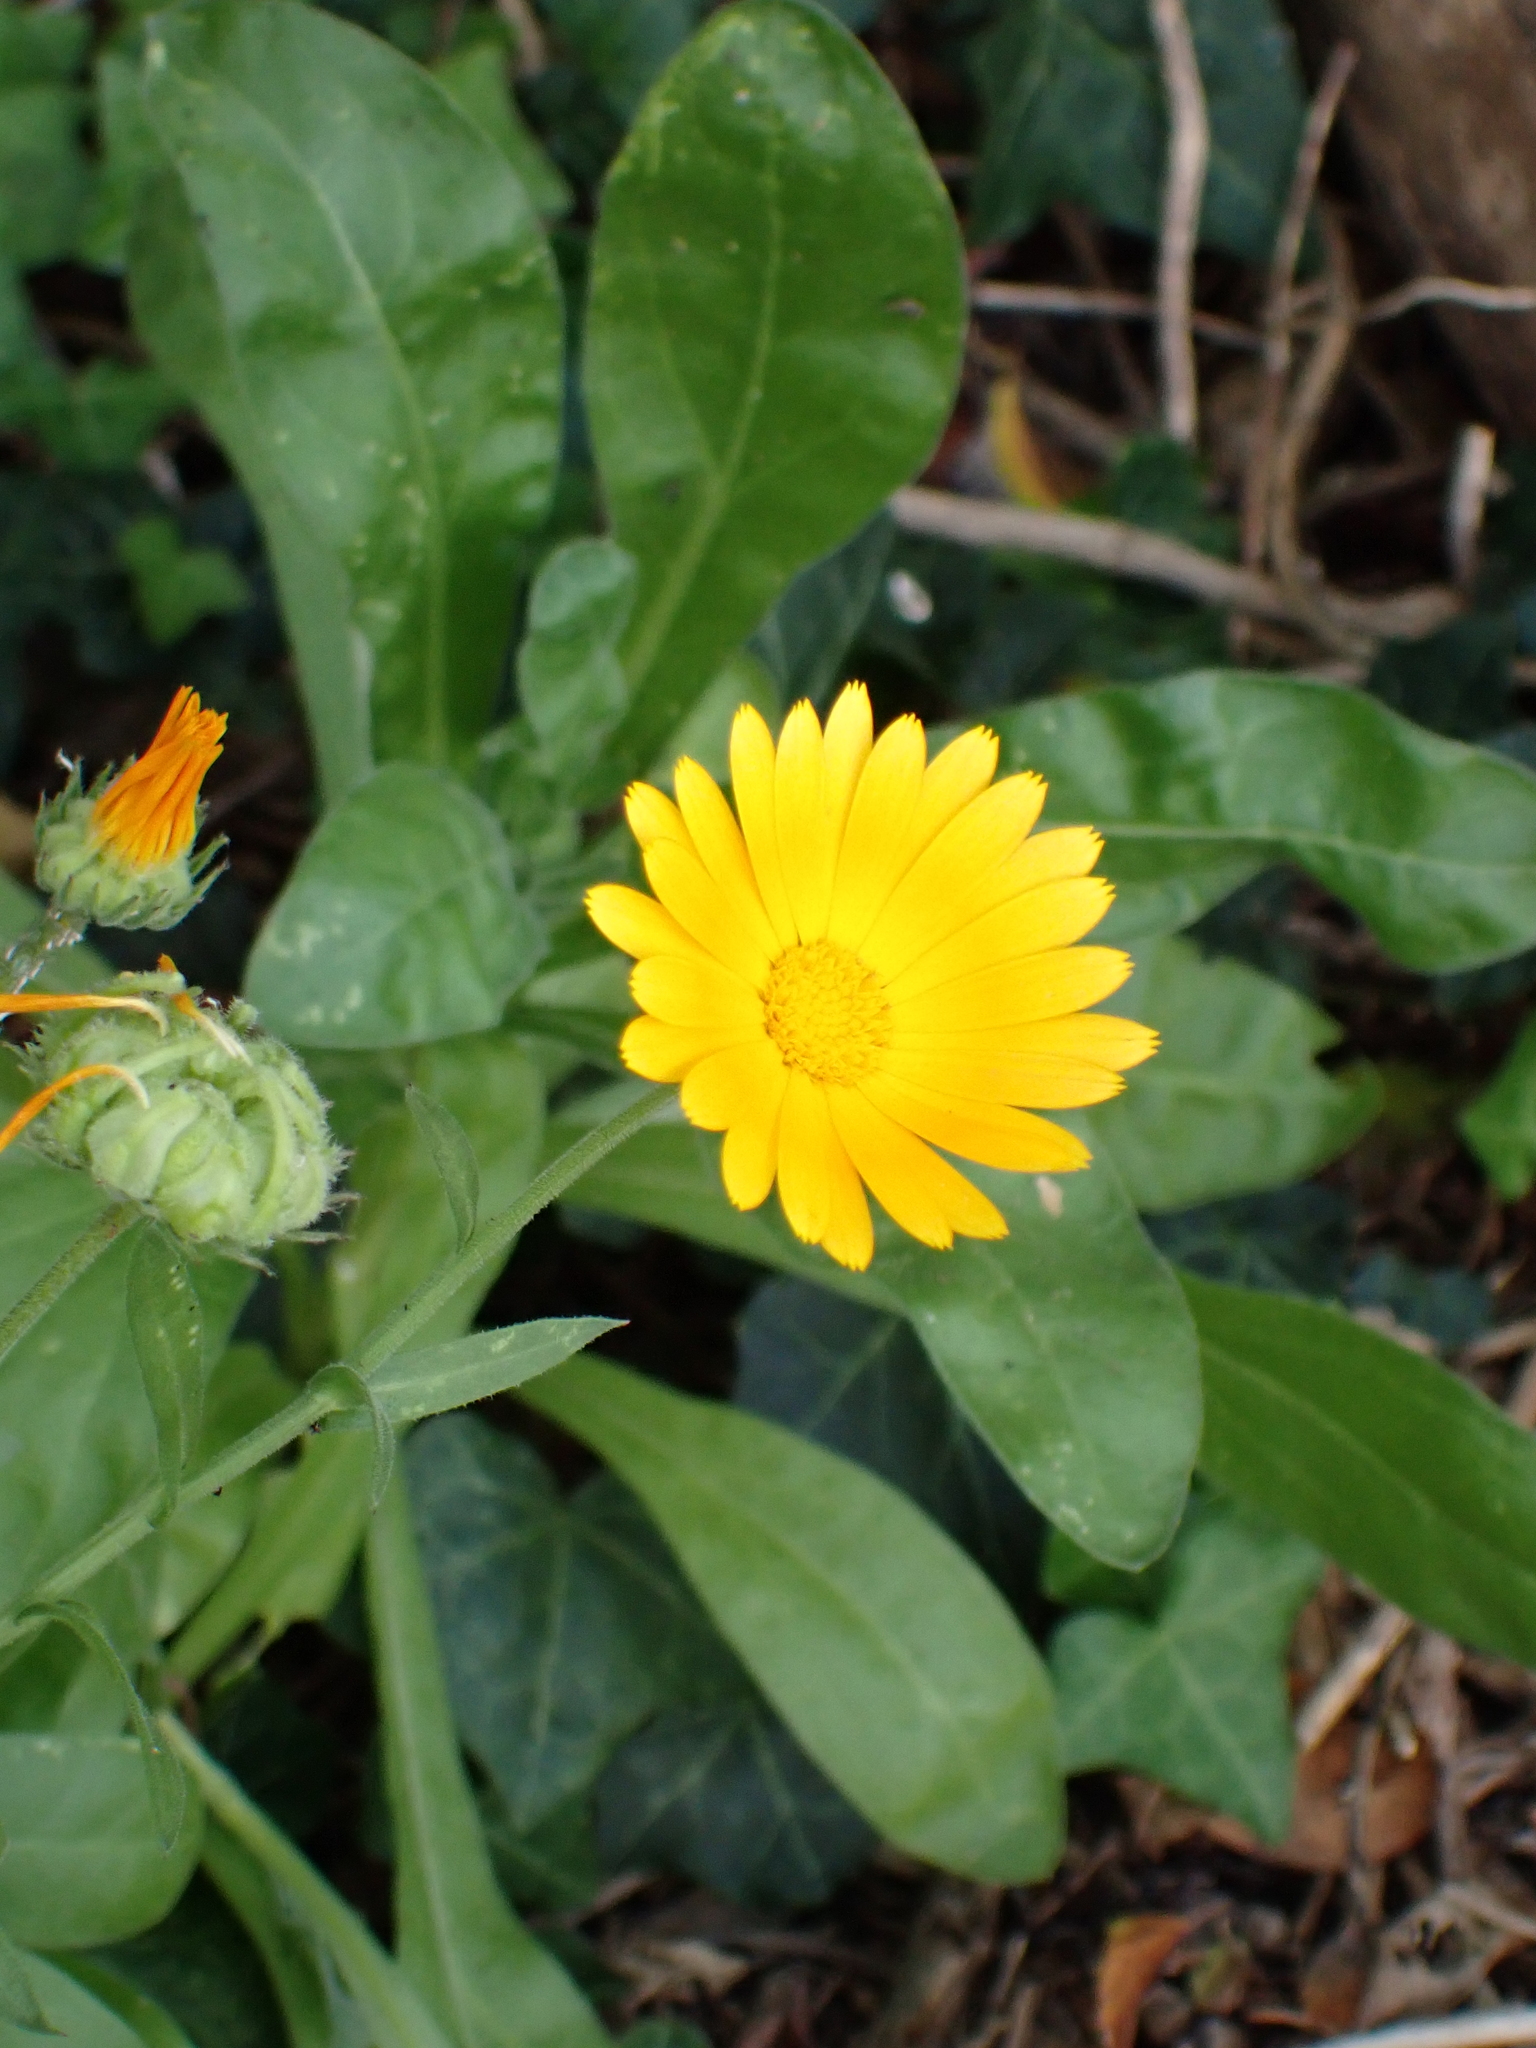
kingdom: Plantae
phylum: Tracheophyta
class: Magnoliopsida
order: Asterales
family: Asteraceae
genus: Calendula
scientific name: Calendula officinalis
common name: Pot marigold
